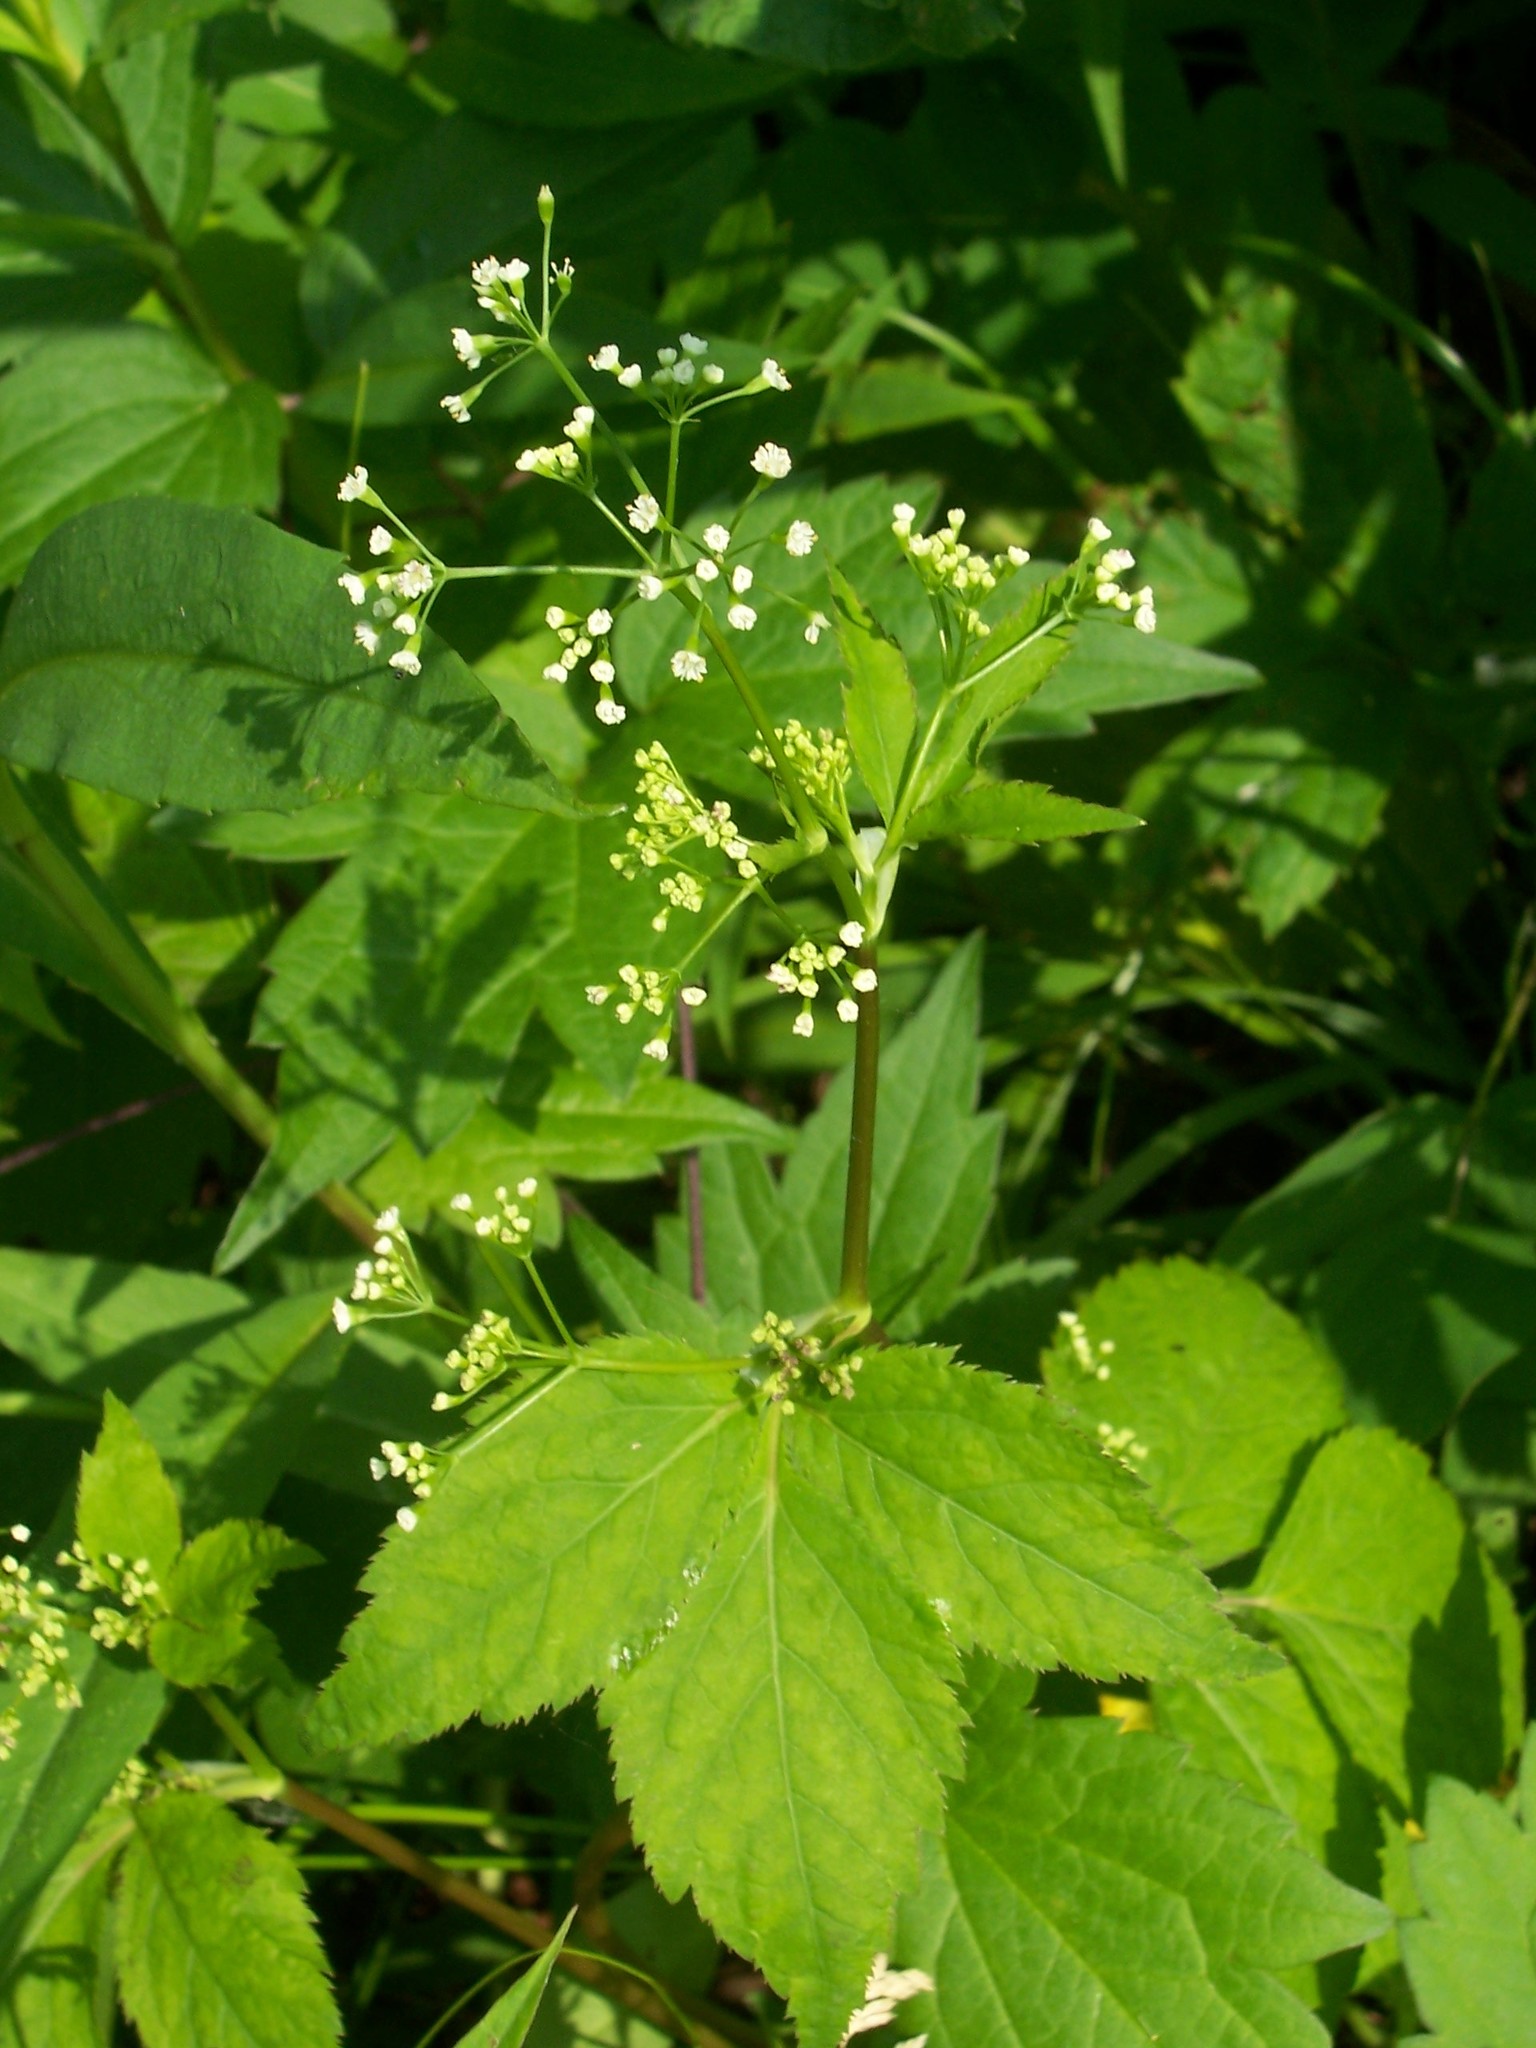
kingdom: Plantae
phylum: Tracheophyta
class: Magnoliopsida
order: Apiales
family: Apiaceae
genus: Cryptotaenia
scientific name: Cryptotaenia canadensis
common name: Honewort
